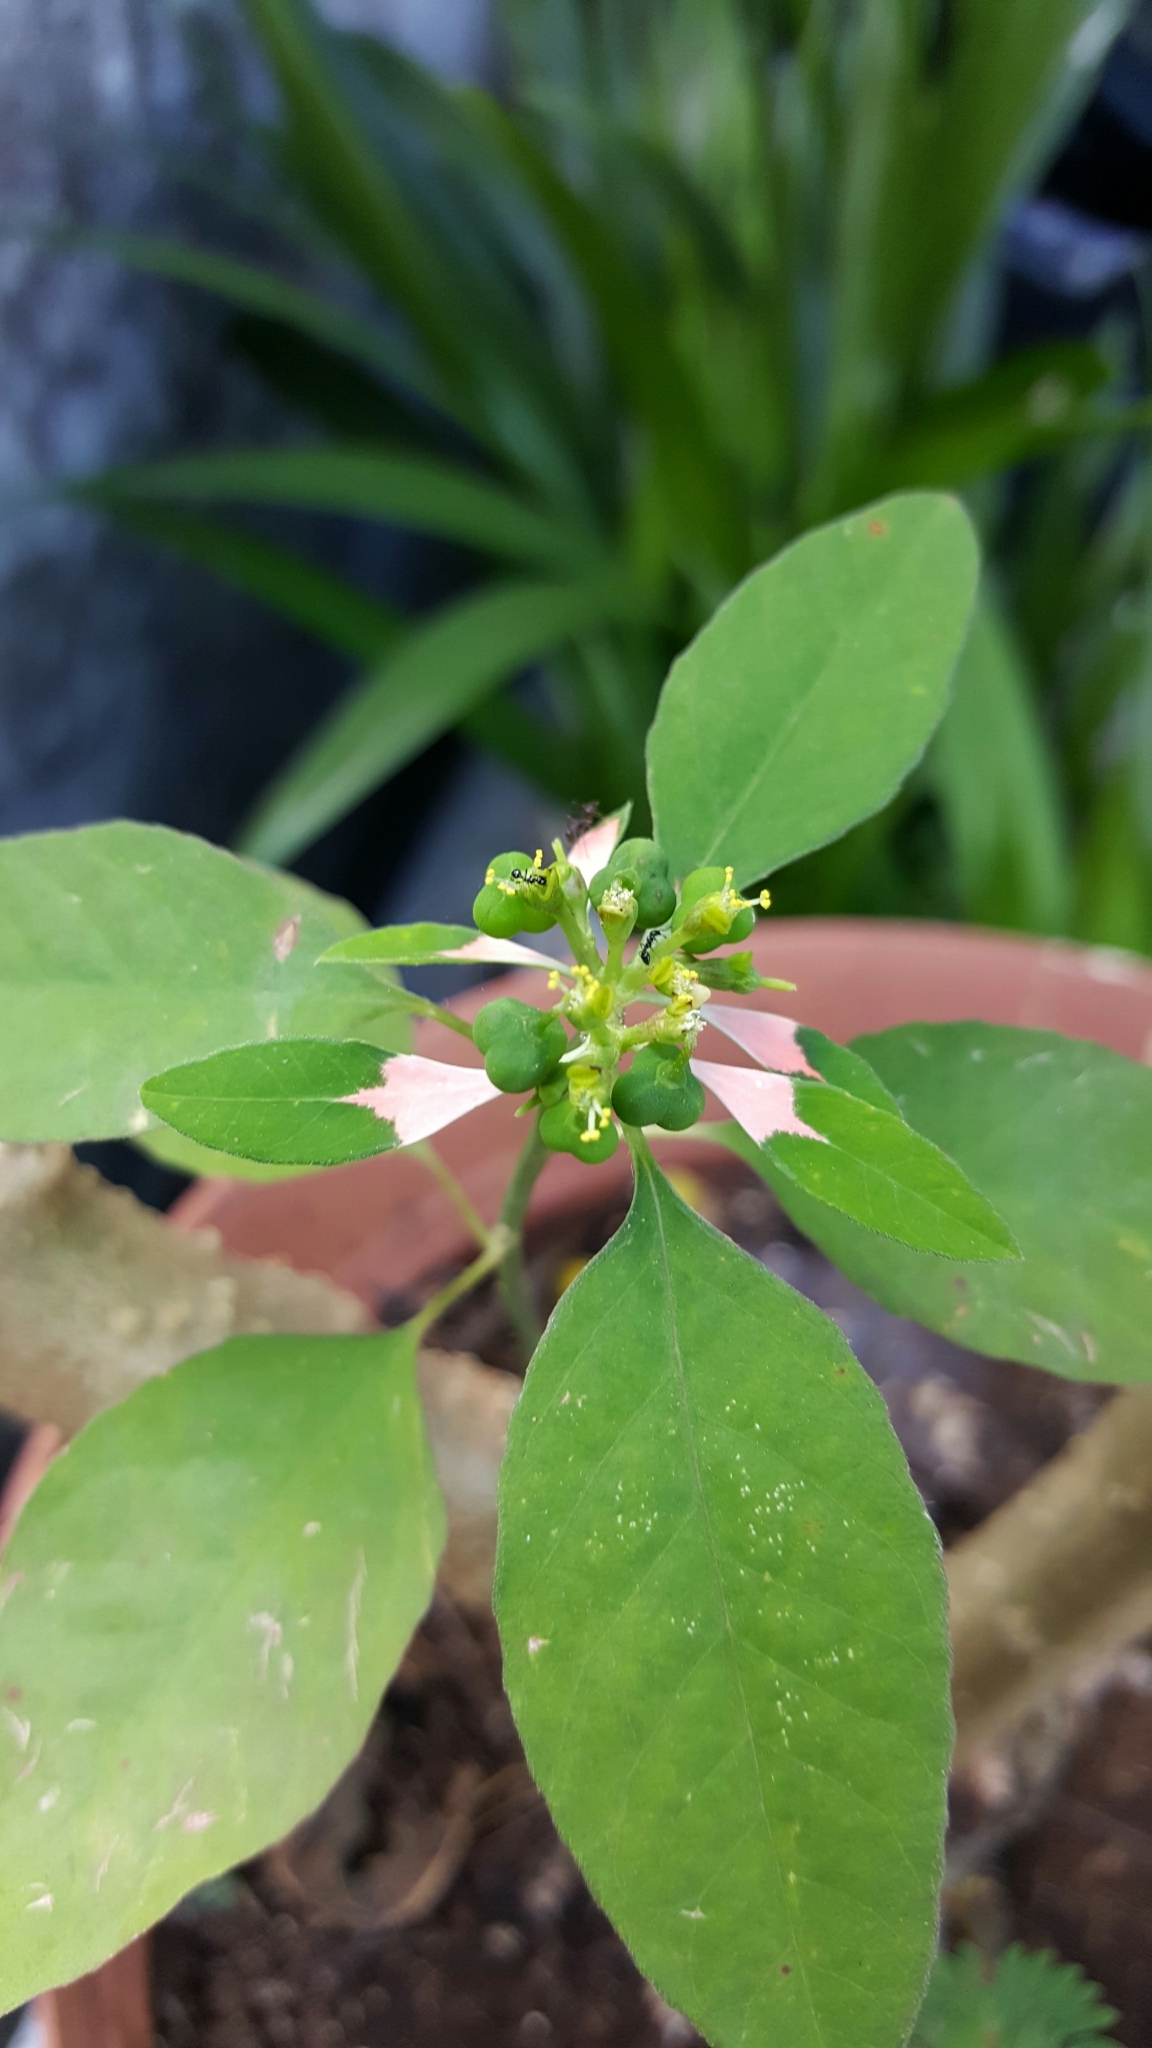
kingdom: Plantae
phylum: Tracheophyta
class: Magnoliopsida
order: Malpighiales
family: Euphorbiaceae
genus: Euphorbia
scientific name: Euphorbia heterophylla
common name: Mexican fireplant
